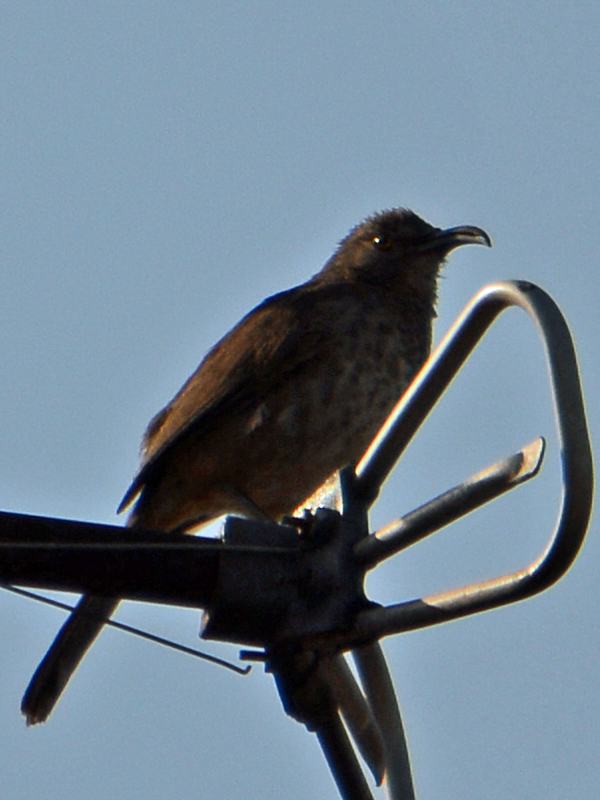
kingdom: Animalia
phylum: Chordata
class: Aves
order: Passeriformes
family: Mimidae
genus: Toxostoma
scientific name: Toxostoma curvirostre
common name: Curve-billed thrasher
